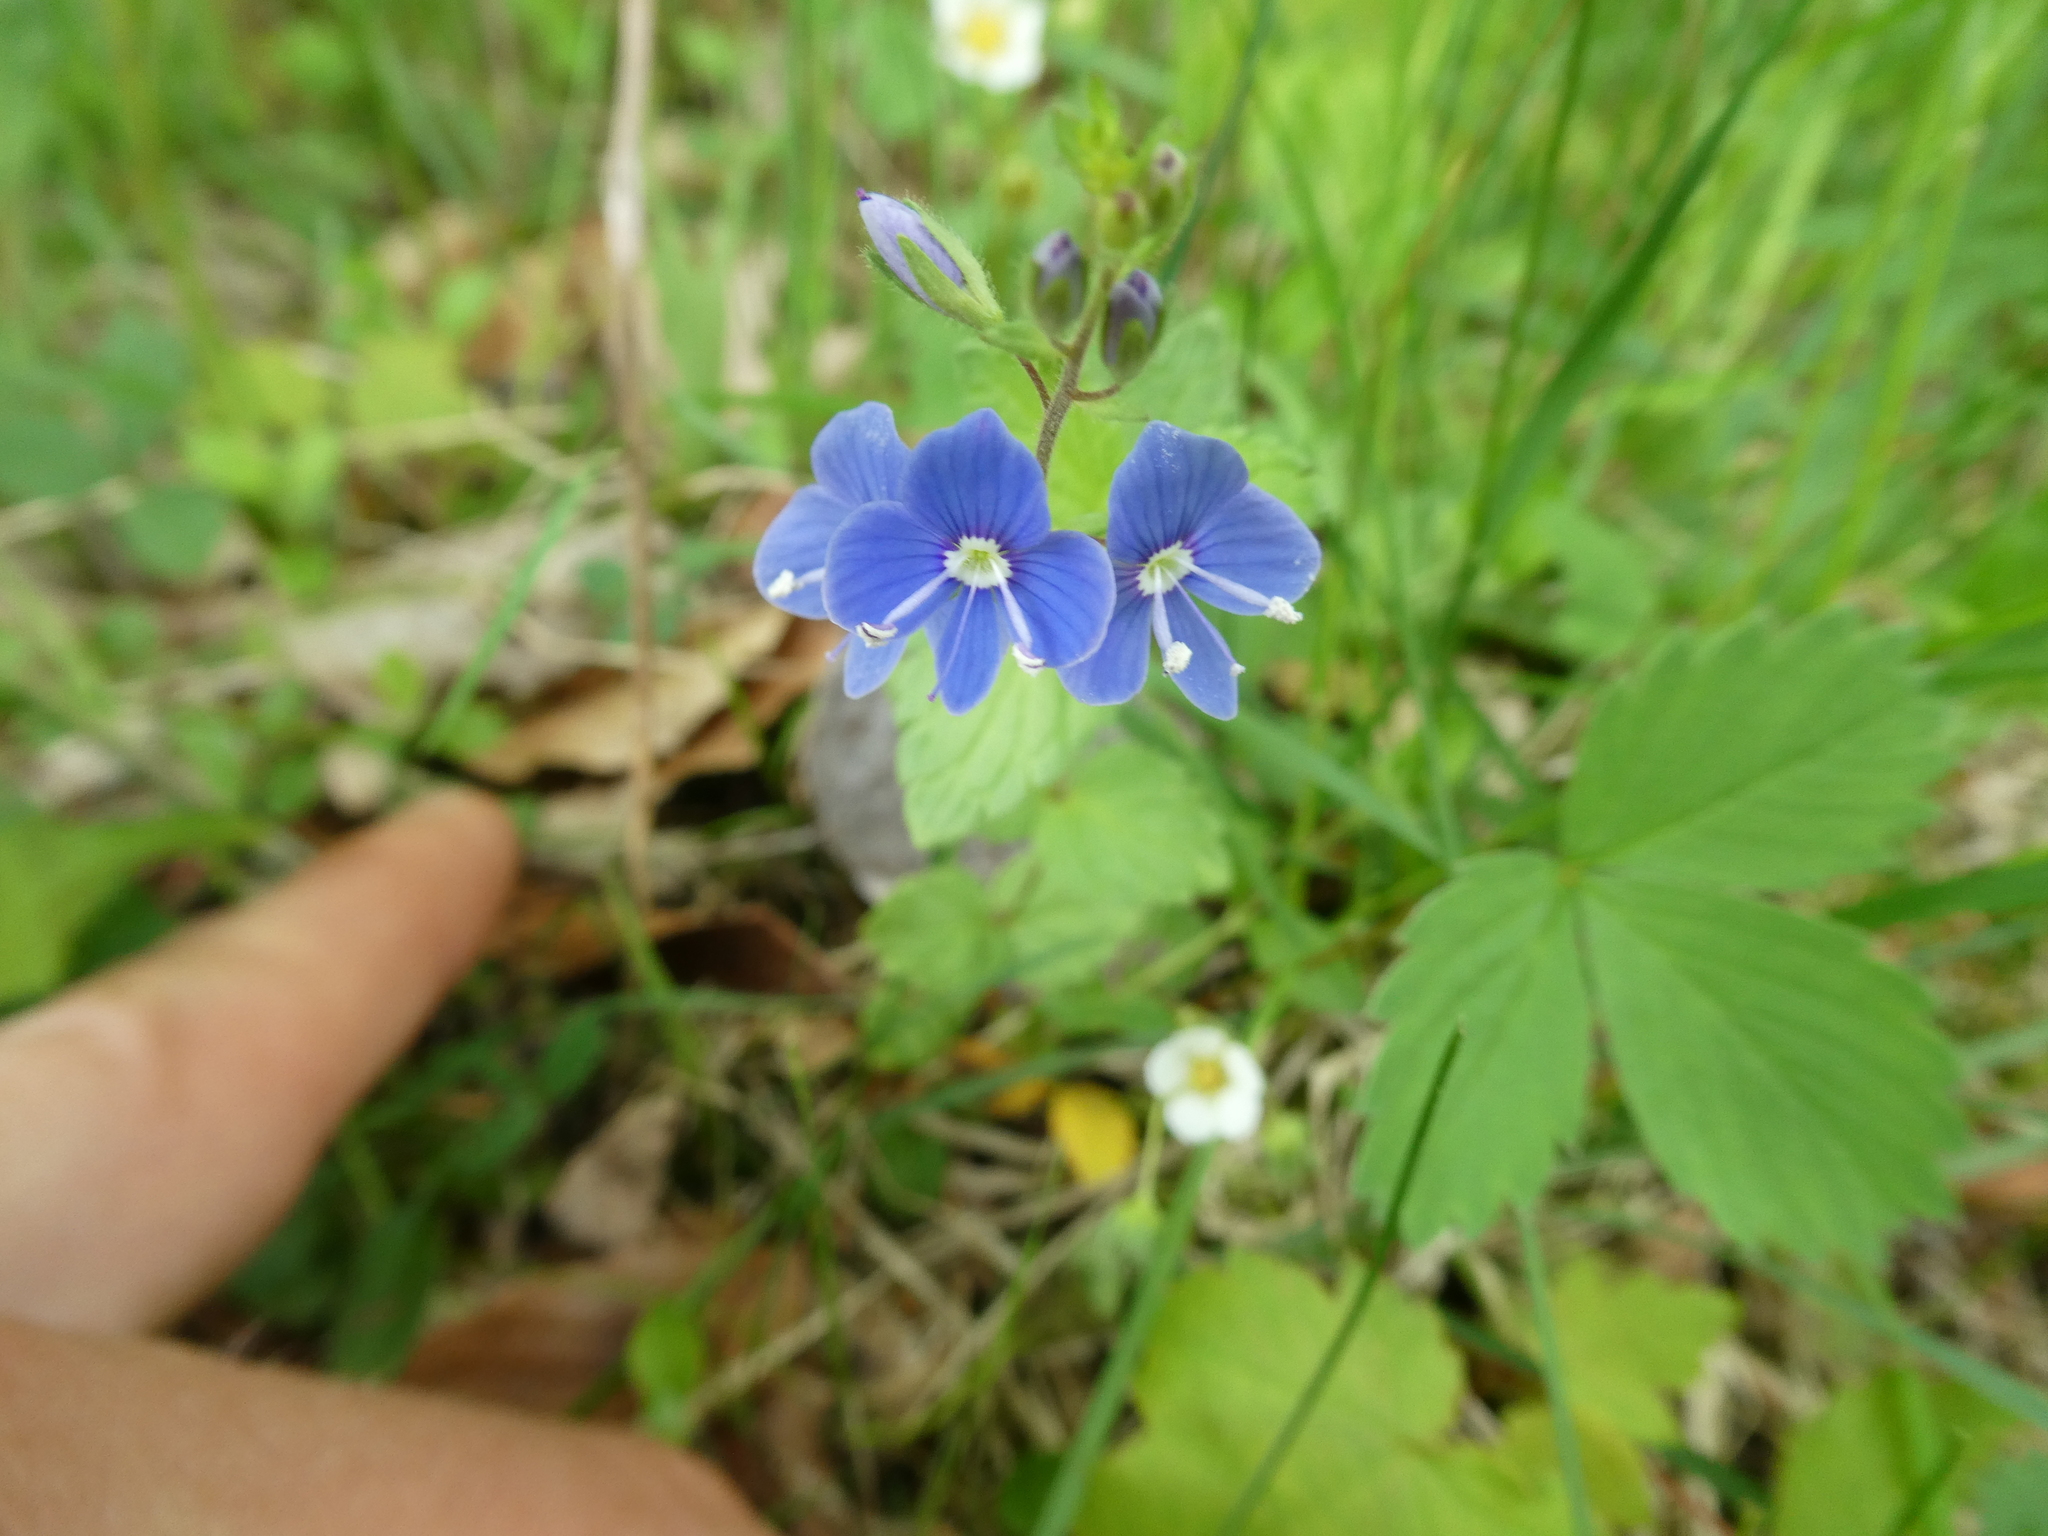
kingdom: Plantae
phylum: Tracheophyta
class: Magnoliopsida
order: Lamiales
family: Plantaginaceae
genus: Veronica
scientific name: Veronica chamaedrys
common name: Germander speedwell
